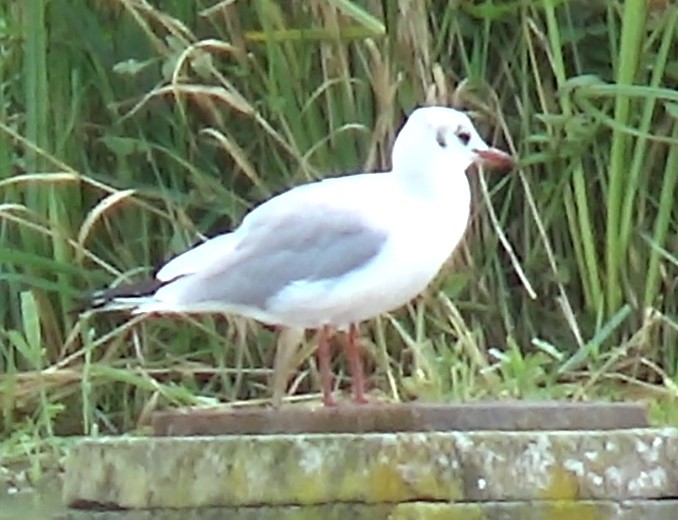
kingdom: Animalia
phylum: Chordata
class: Aves
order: Charadriiformes
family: Laridae
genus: Chroicocephalus
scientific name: Chroicocephalus ridibundus
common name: Black-headed gull
